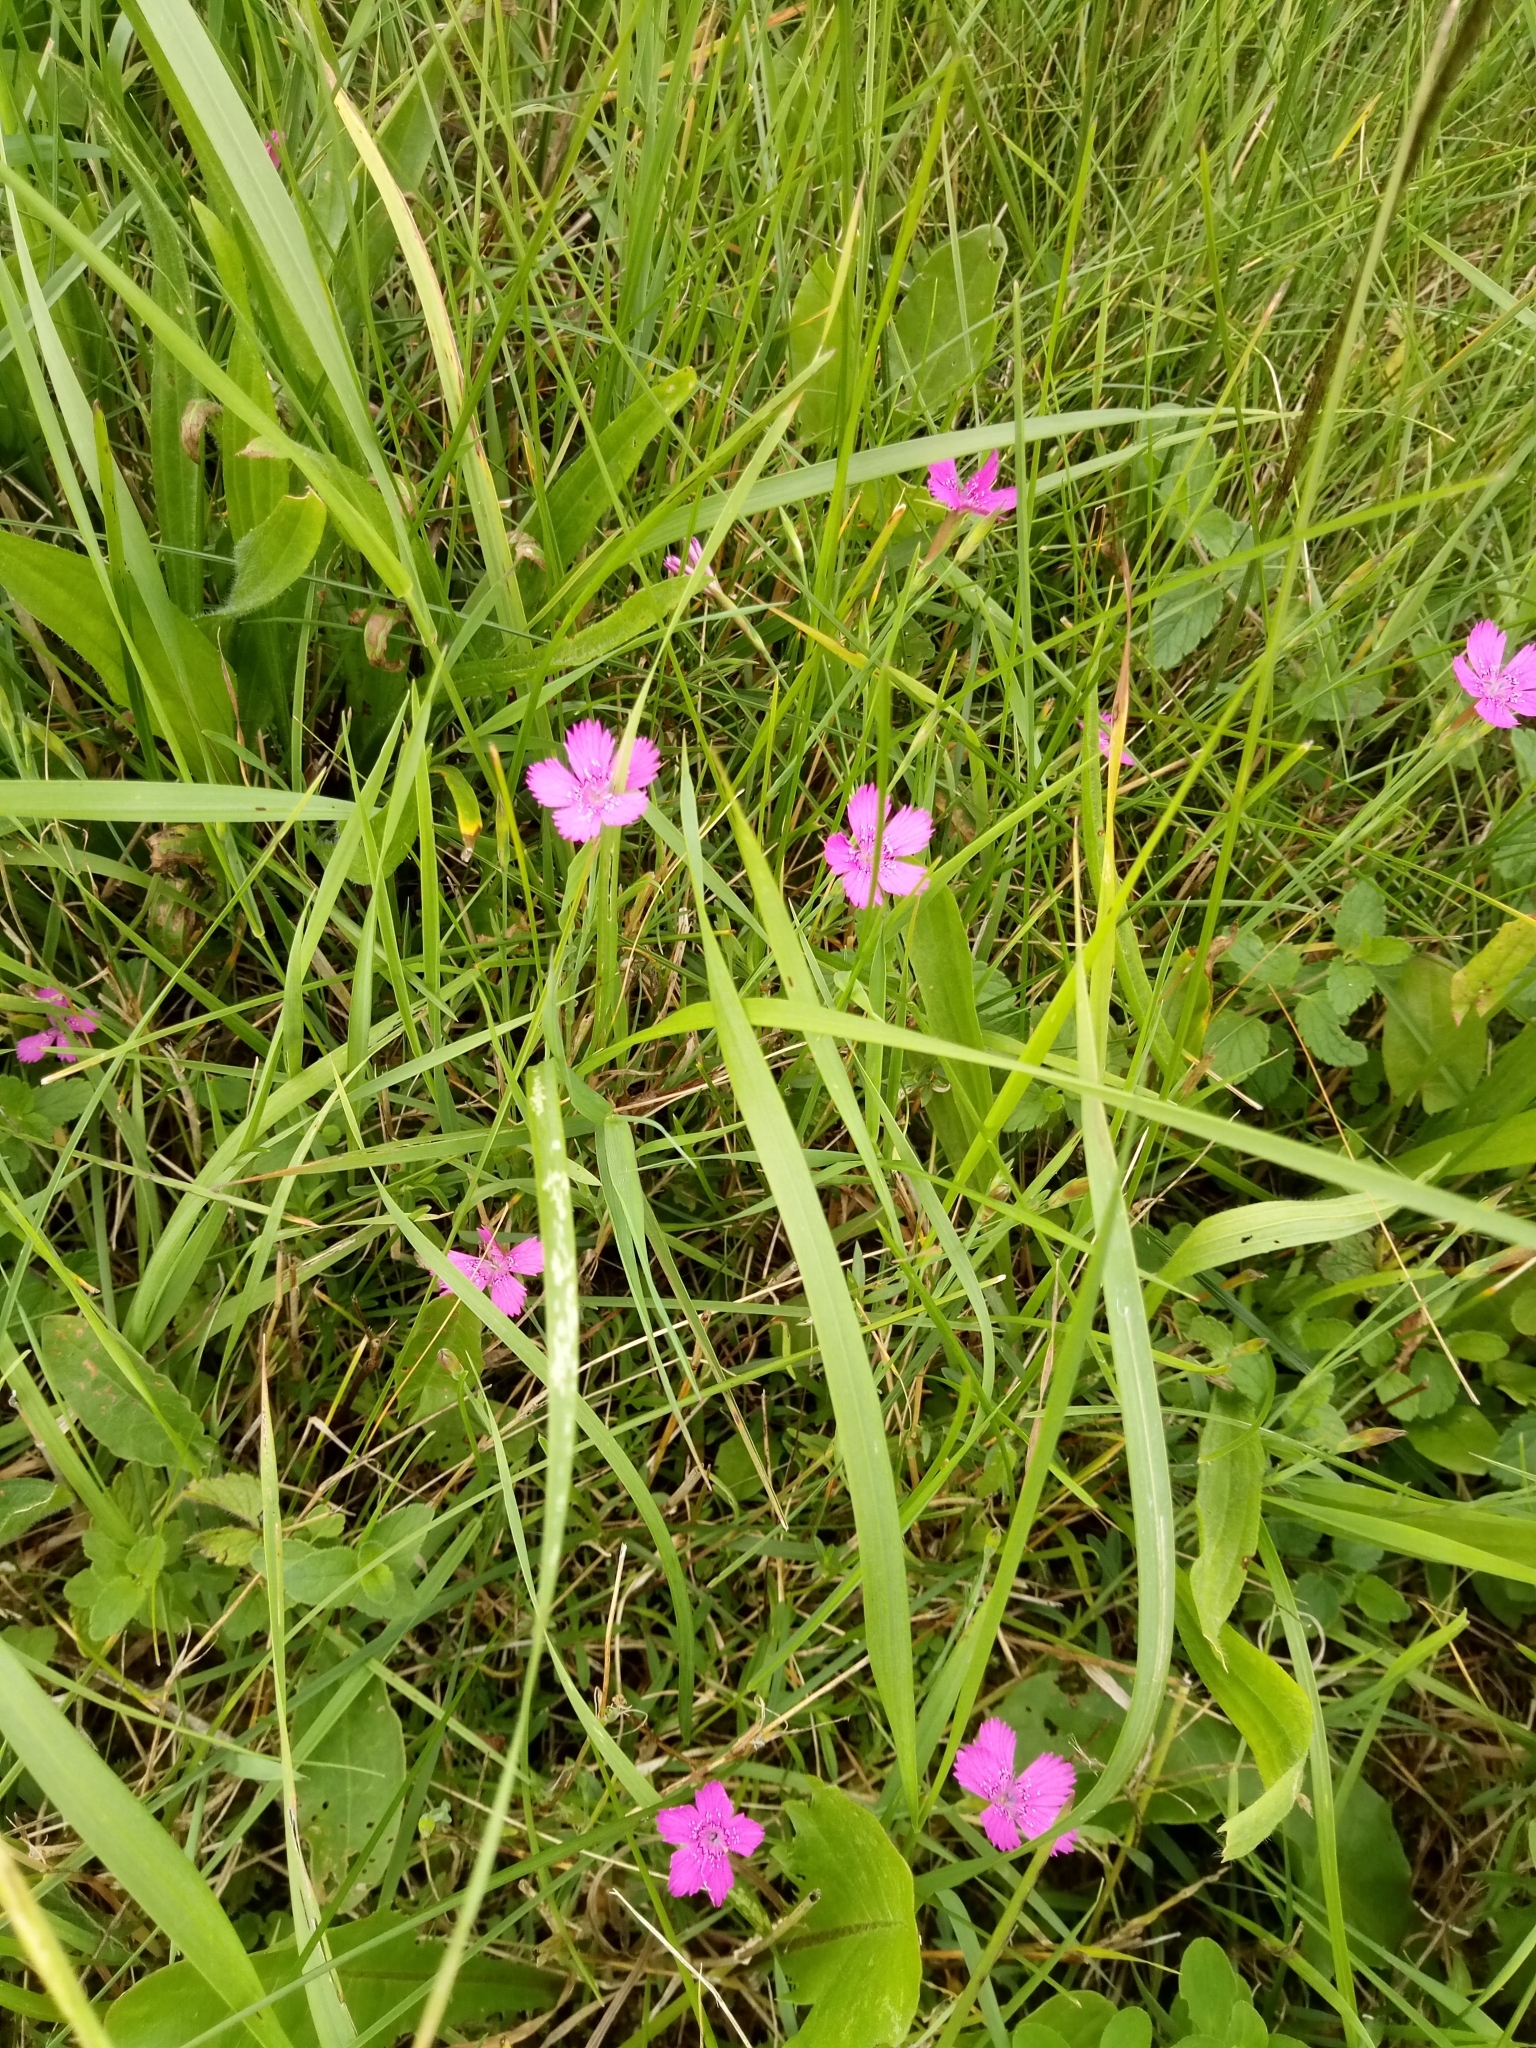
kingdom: Plantae
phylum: Tracheophyta
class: Magnoliopsida
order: Caryophyllales
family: Caryophyllaceae
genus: Dianthus
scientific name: Dianthus deltoides
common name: Maiden pink
